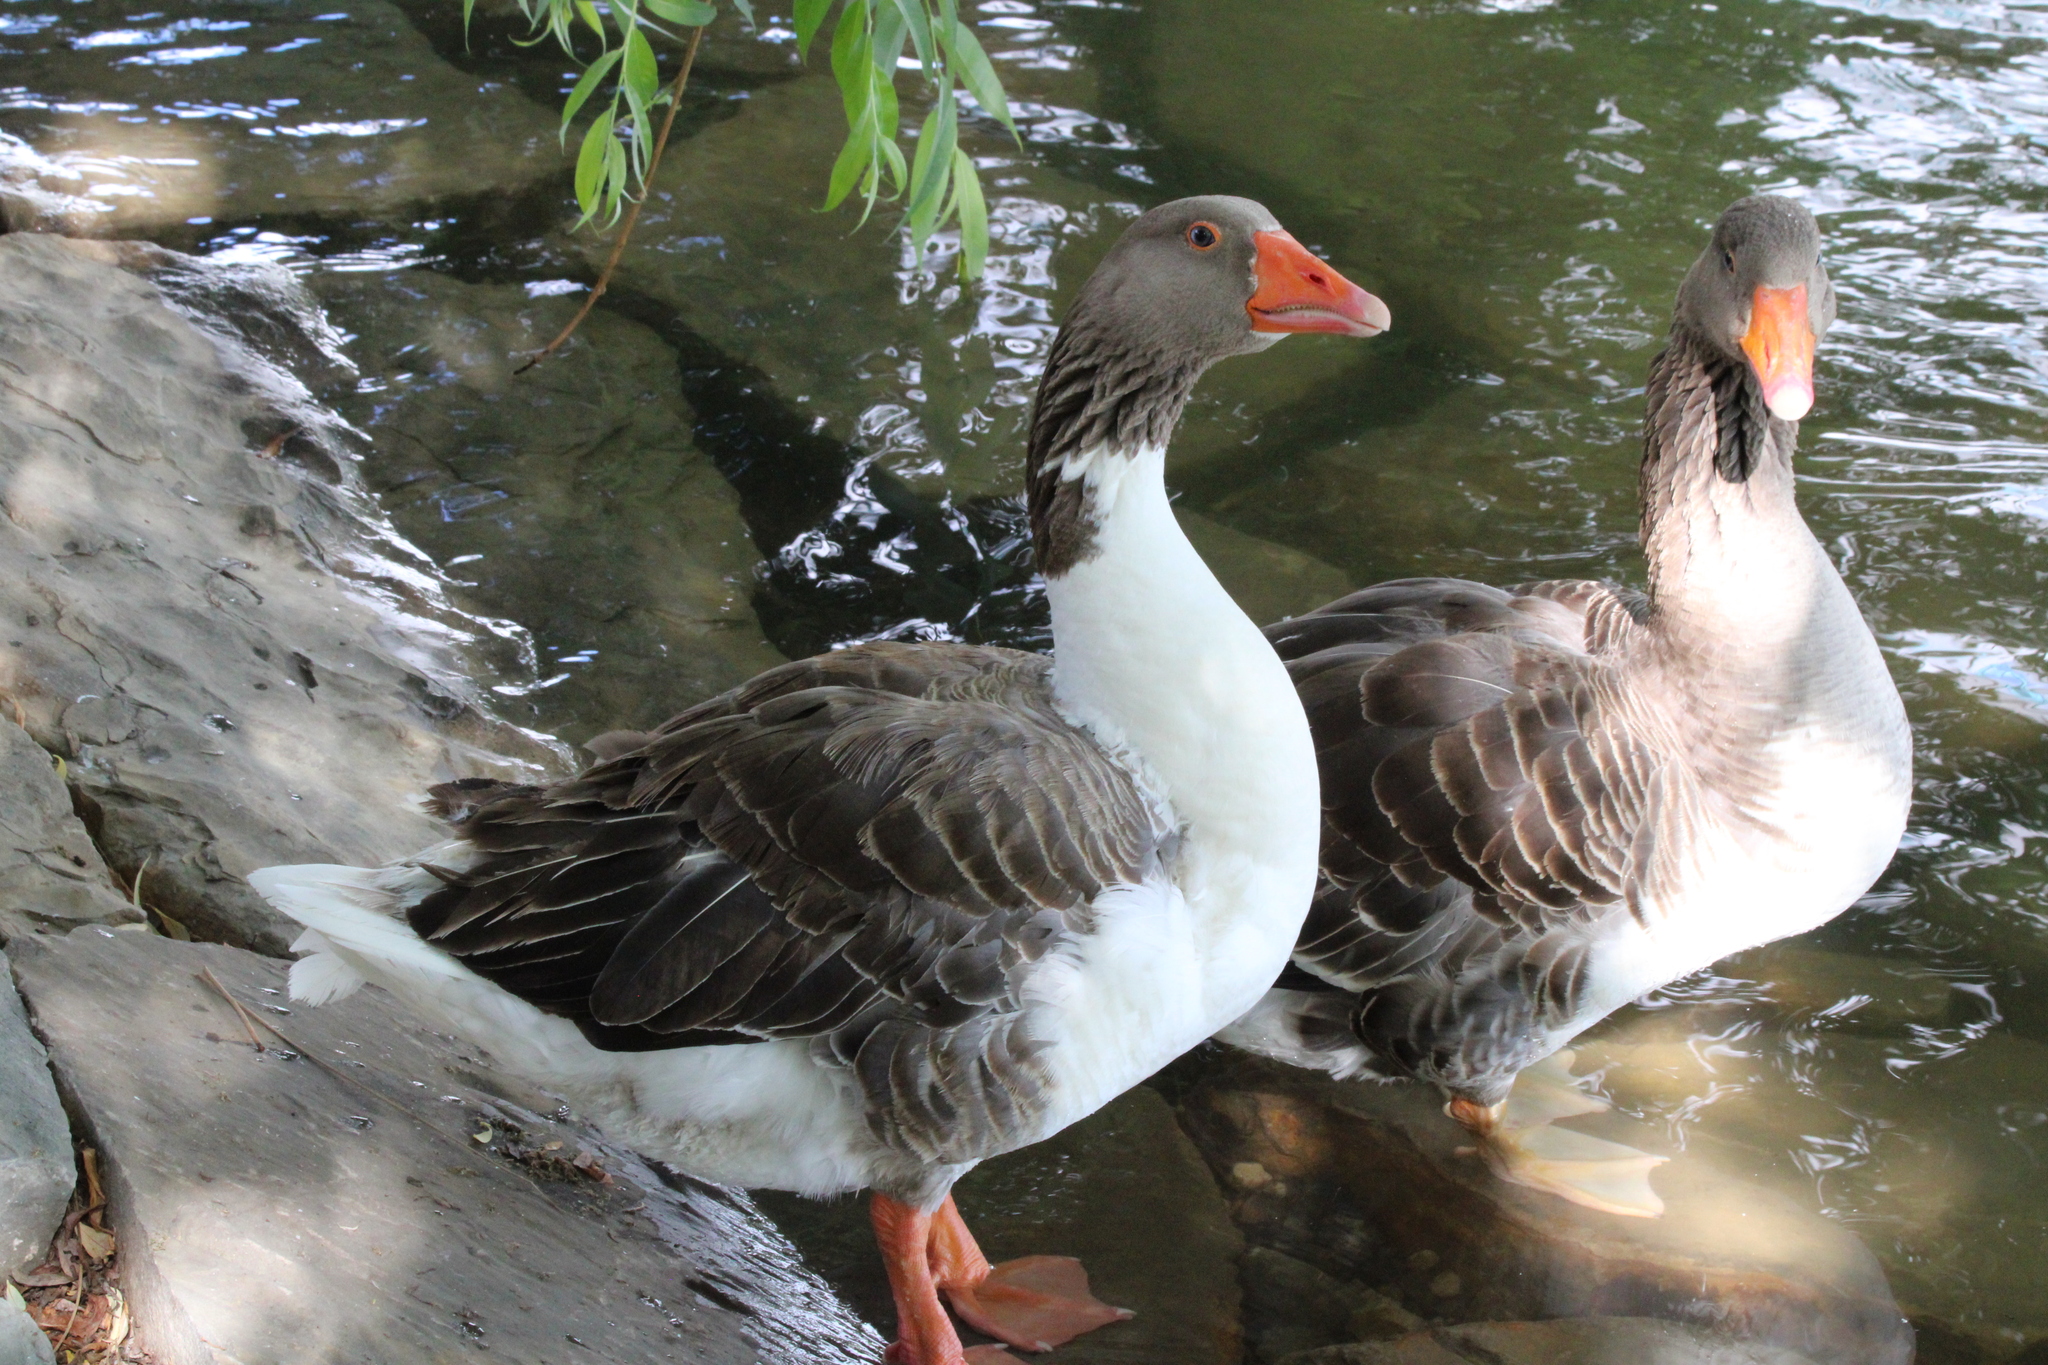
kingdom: Animalia
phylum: Chordata
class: Aves
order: Anseriformes
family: Anatidae
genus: Anser
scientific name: Anser anser
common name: Greylag goose
